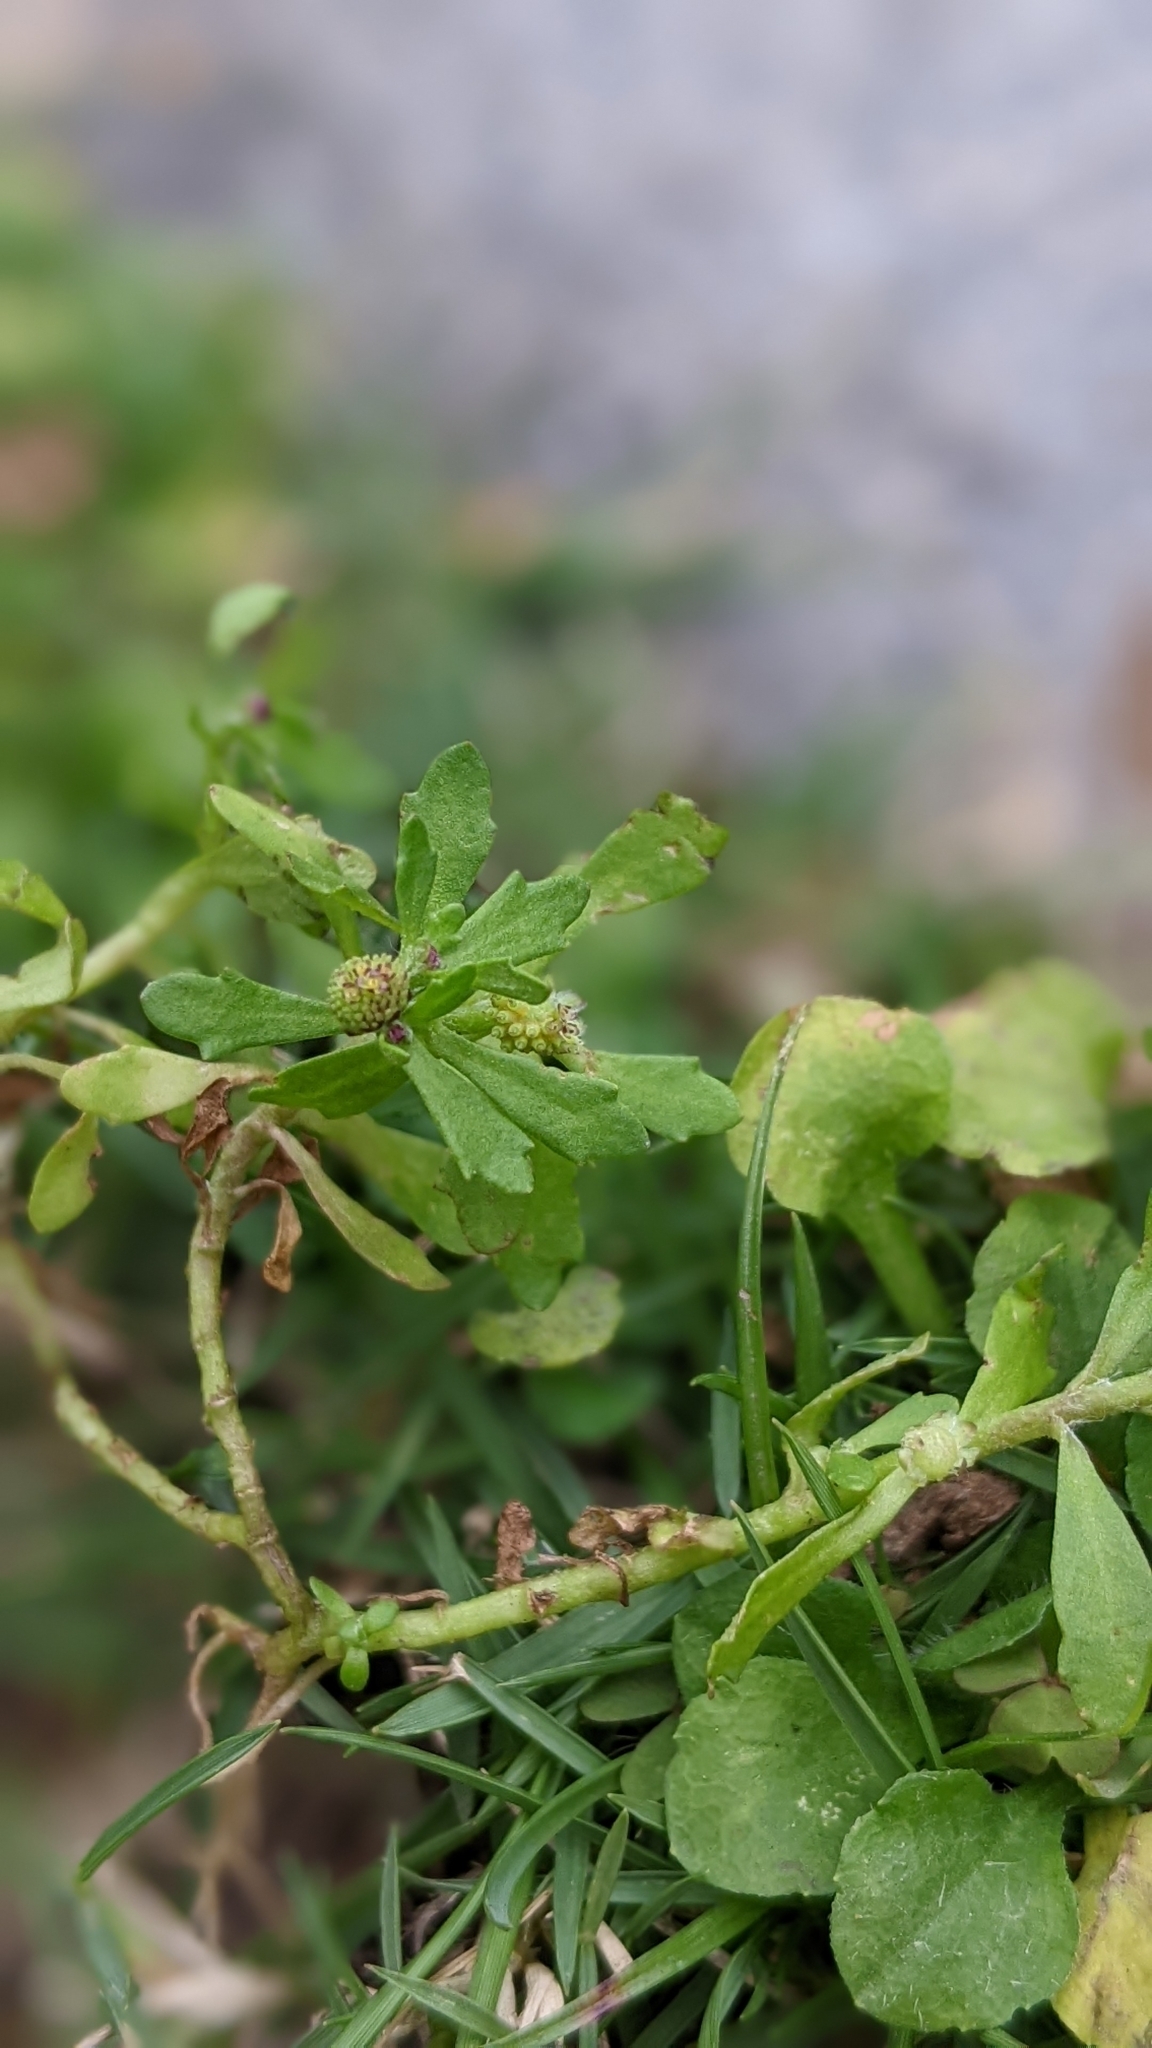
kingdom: Plantae
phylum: Tracheophyta
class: Magnoliopsida
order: Asterales
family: Asteraceae
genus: Centipeda
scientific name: Centipeda minima
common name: Spreading sneezeweed
